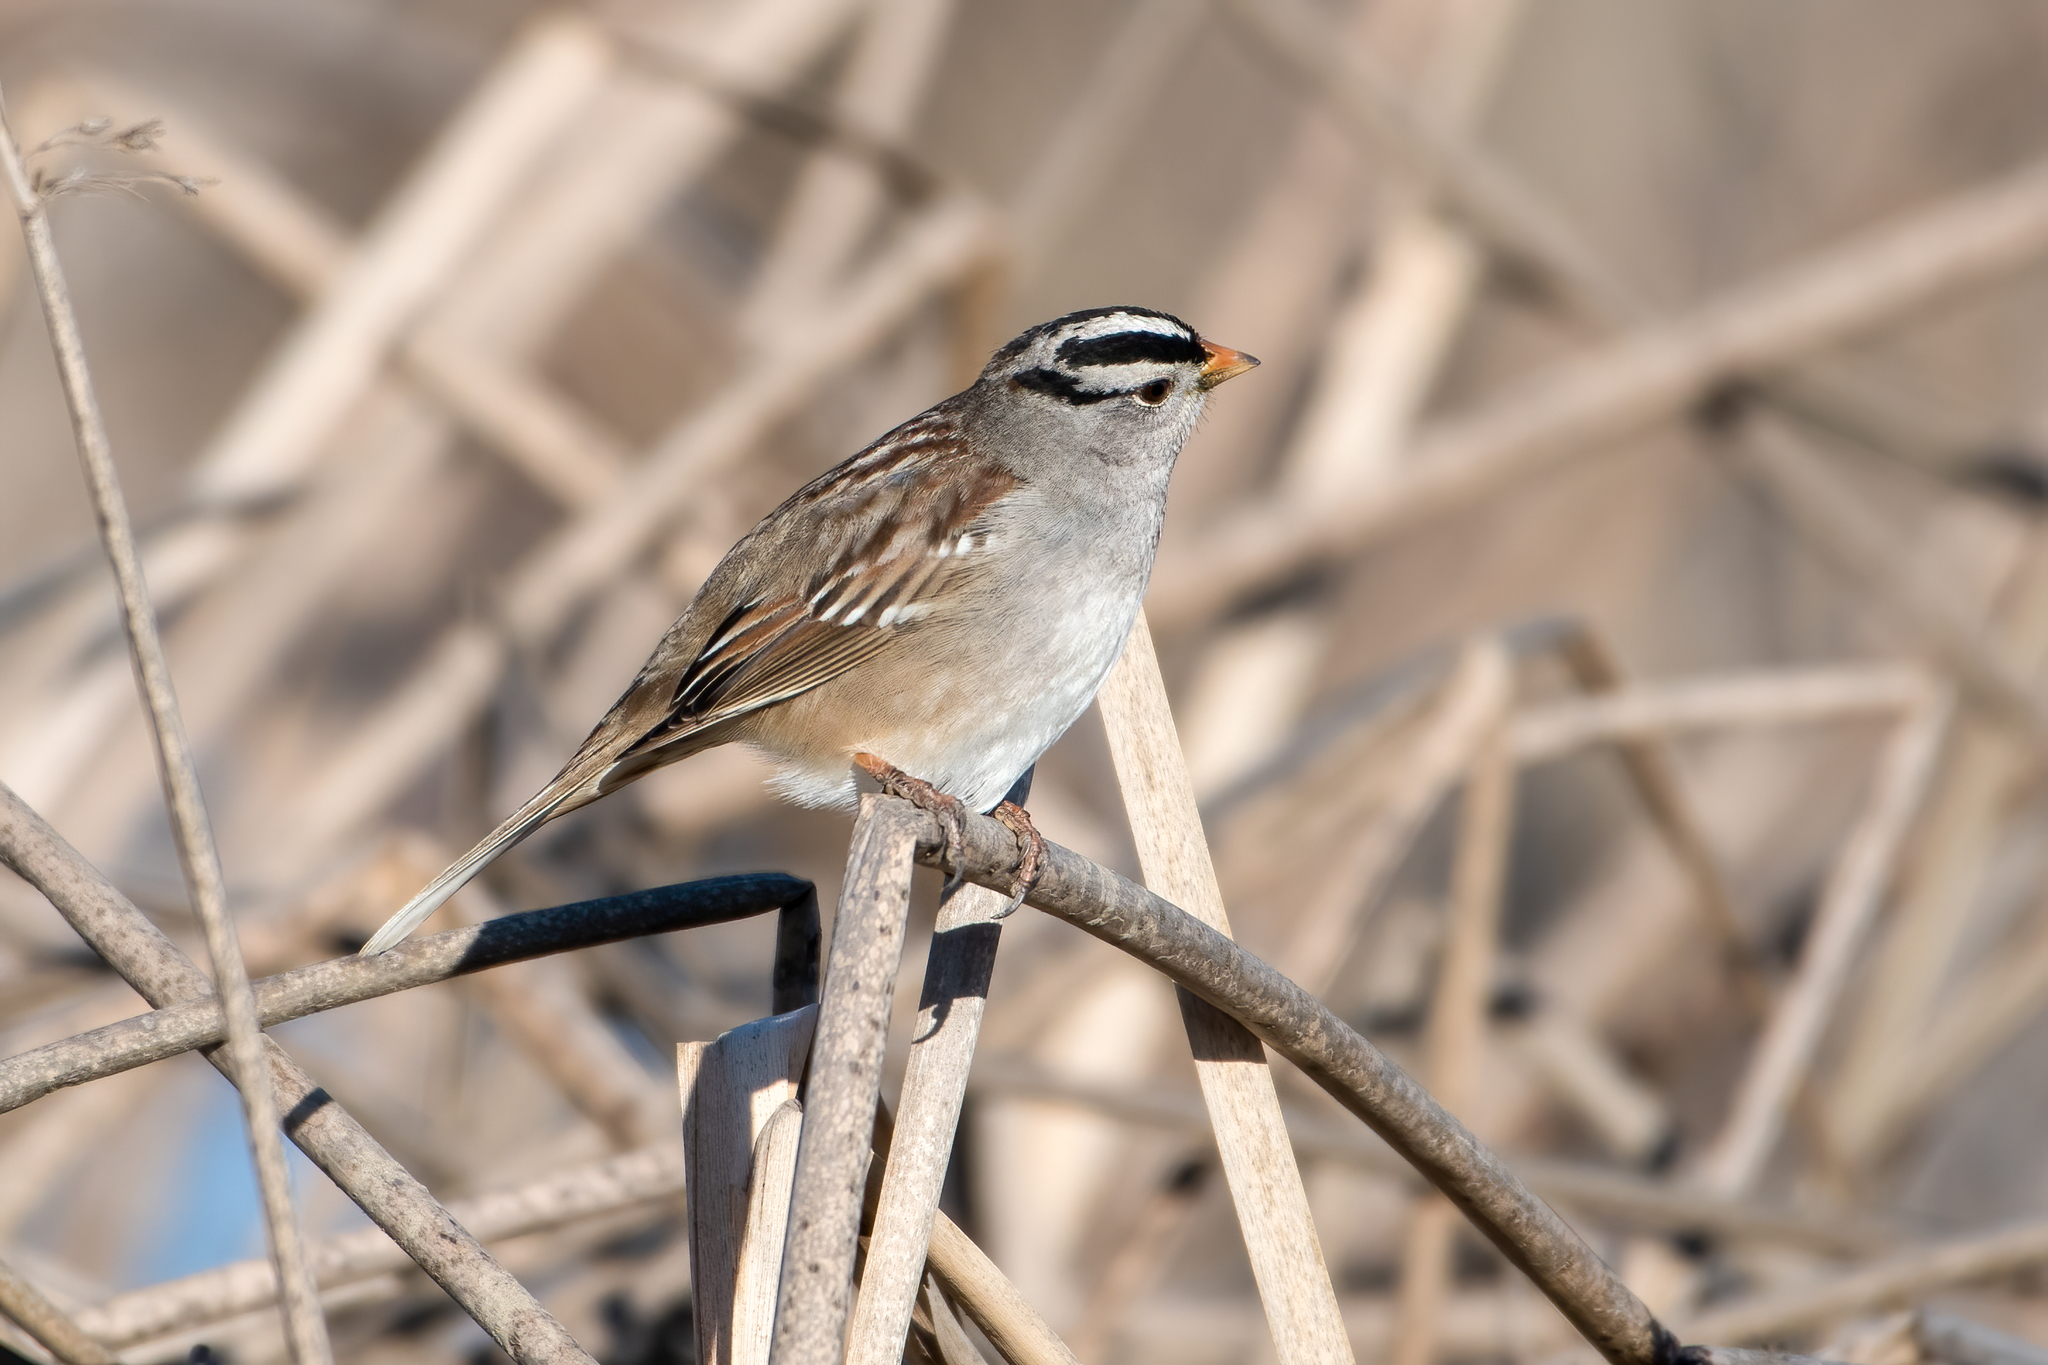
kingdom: Animalia
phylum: Chordata
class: Aves
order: Passeriformes
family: Passerellidae
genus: Zonotrichia
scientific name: Zonotrichia leucophrys
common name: White-crowned sparrow
